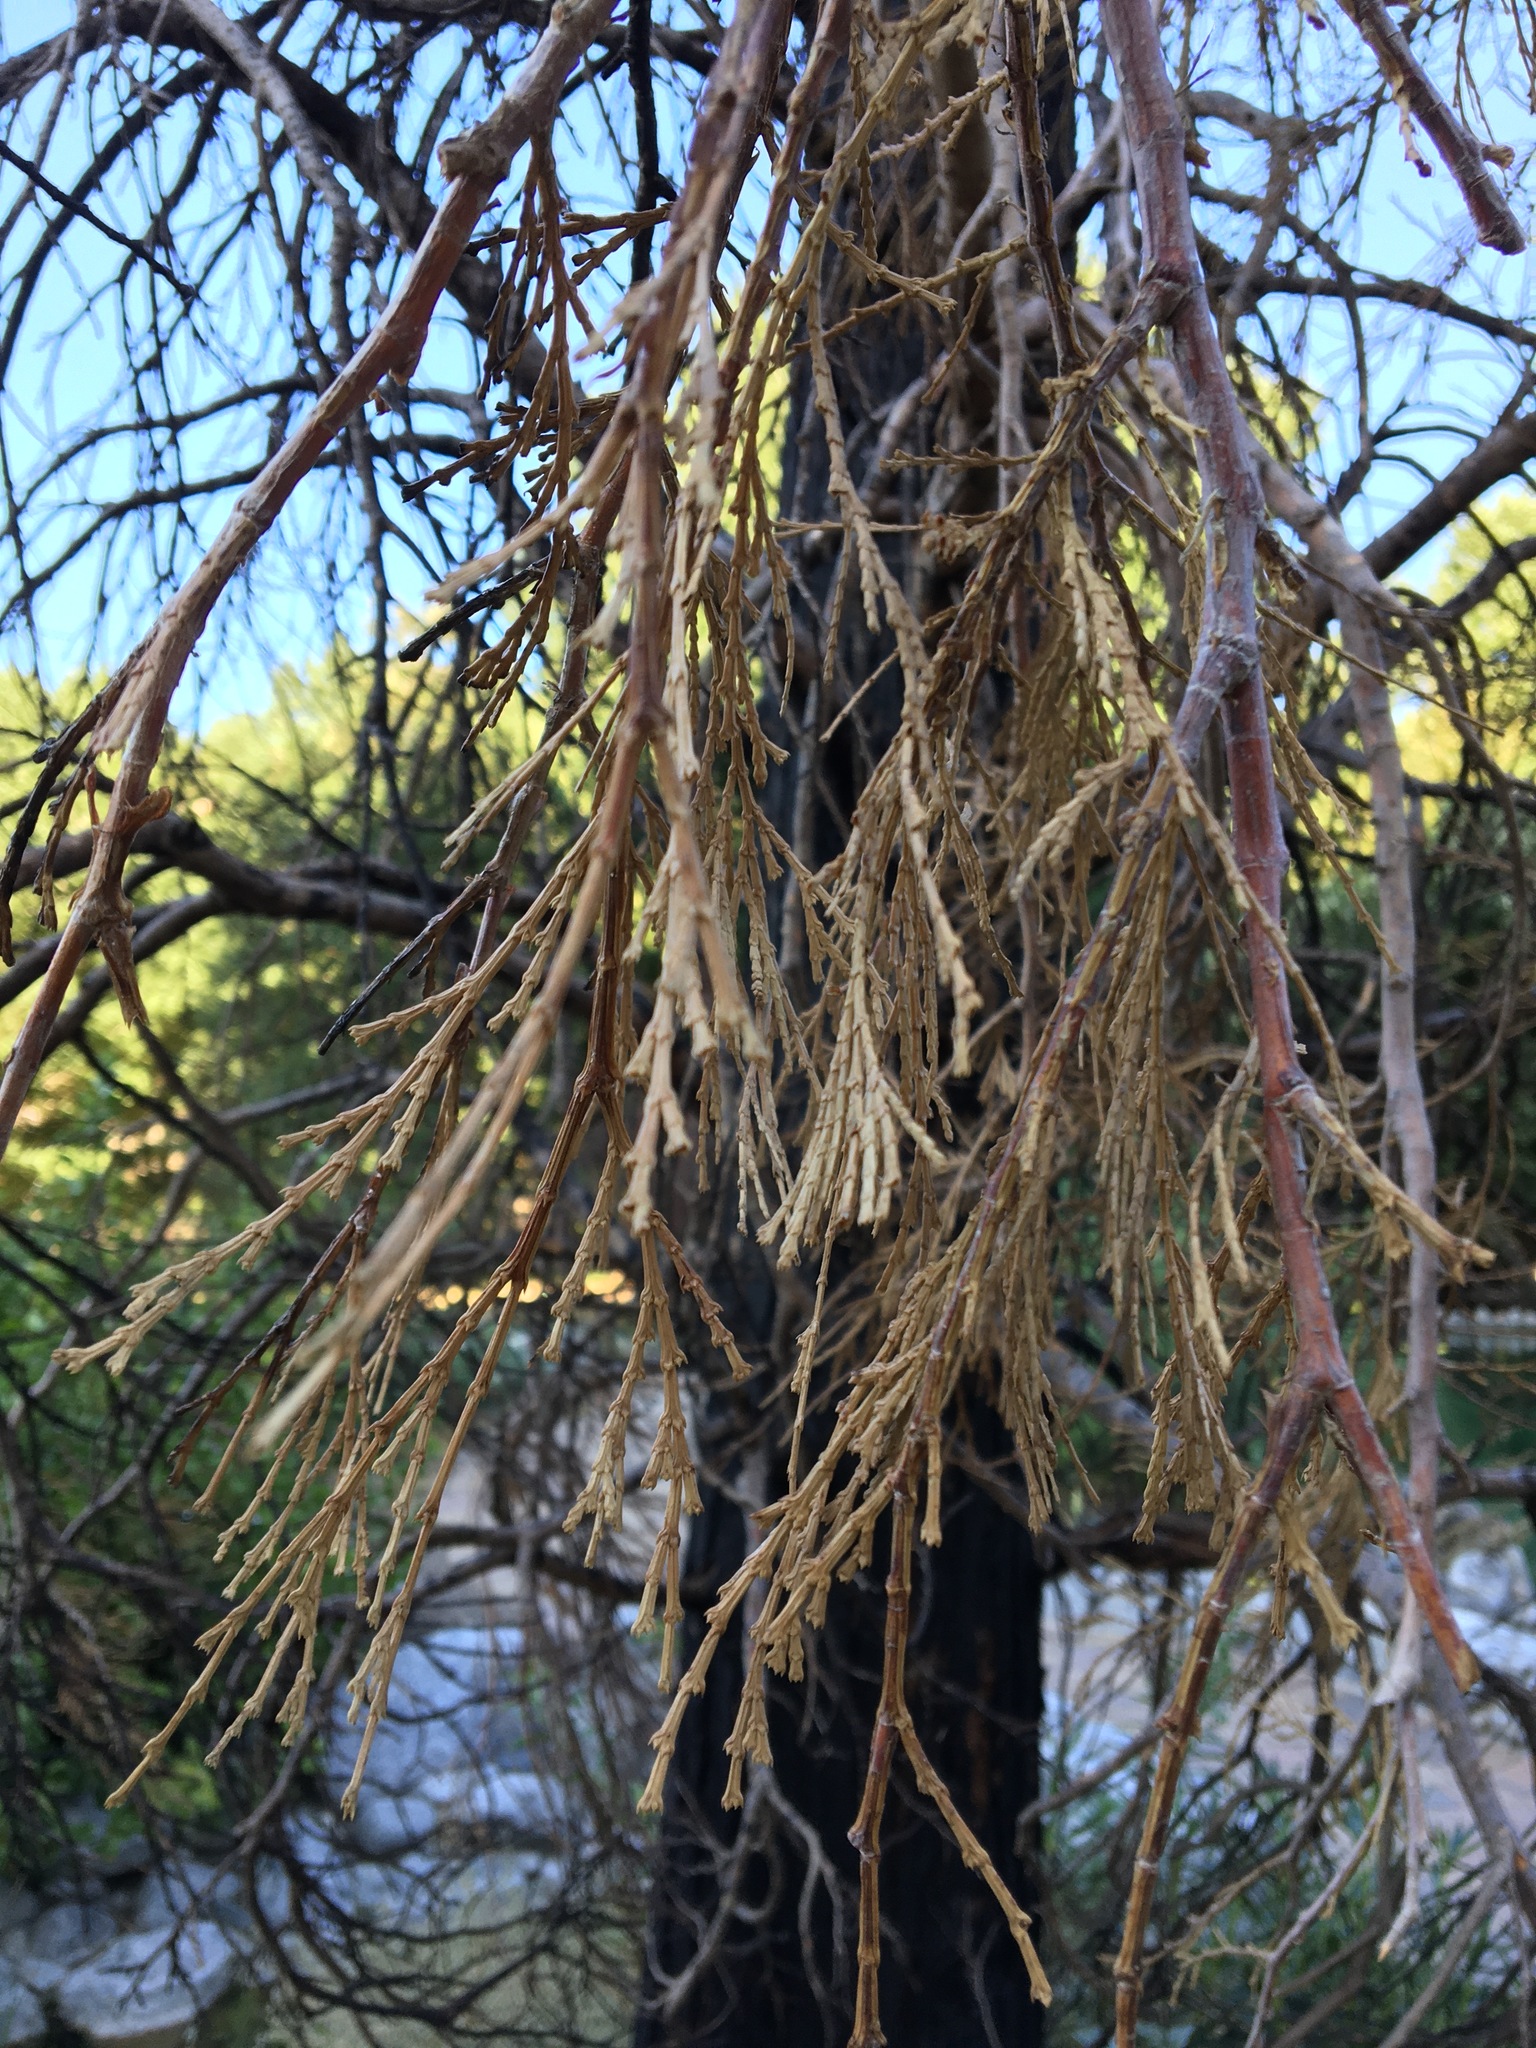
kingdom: Plantae
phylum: Tracheophyta
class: Pinopsida
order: Pinales
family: Cupressaceae
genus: Calocedrus
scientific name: Calocedrus decurrens
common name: Californian incense-cedar
